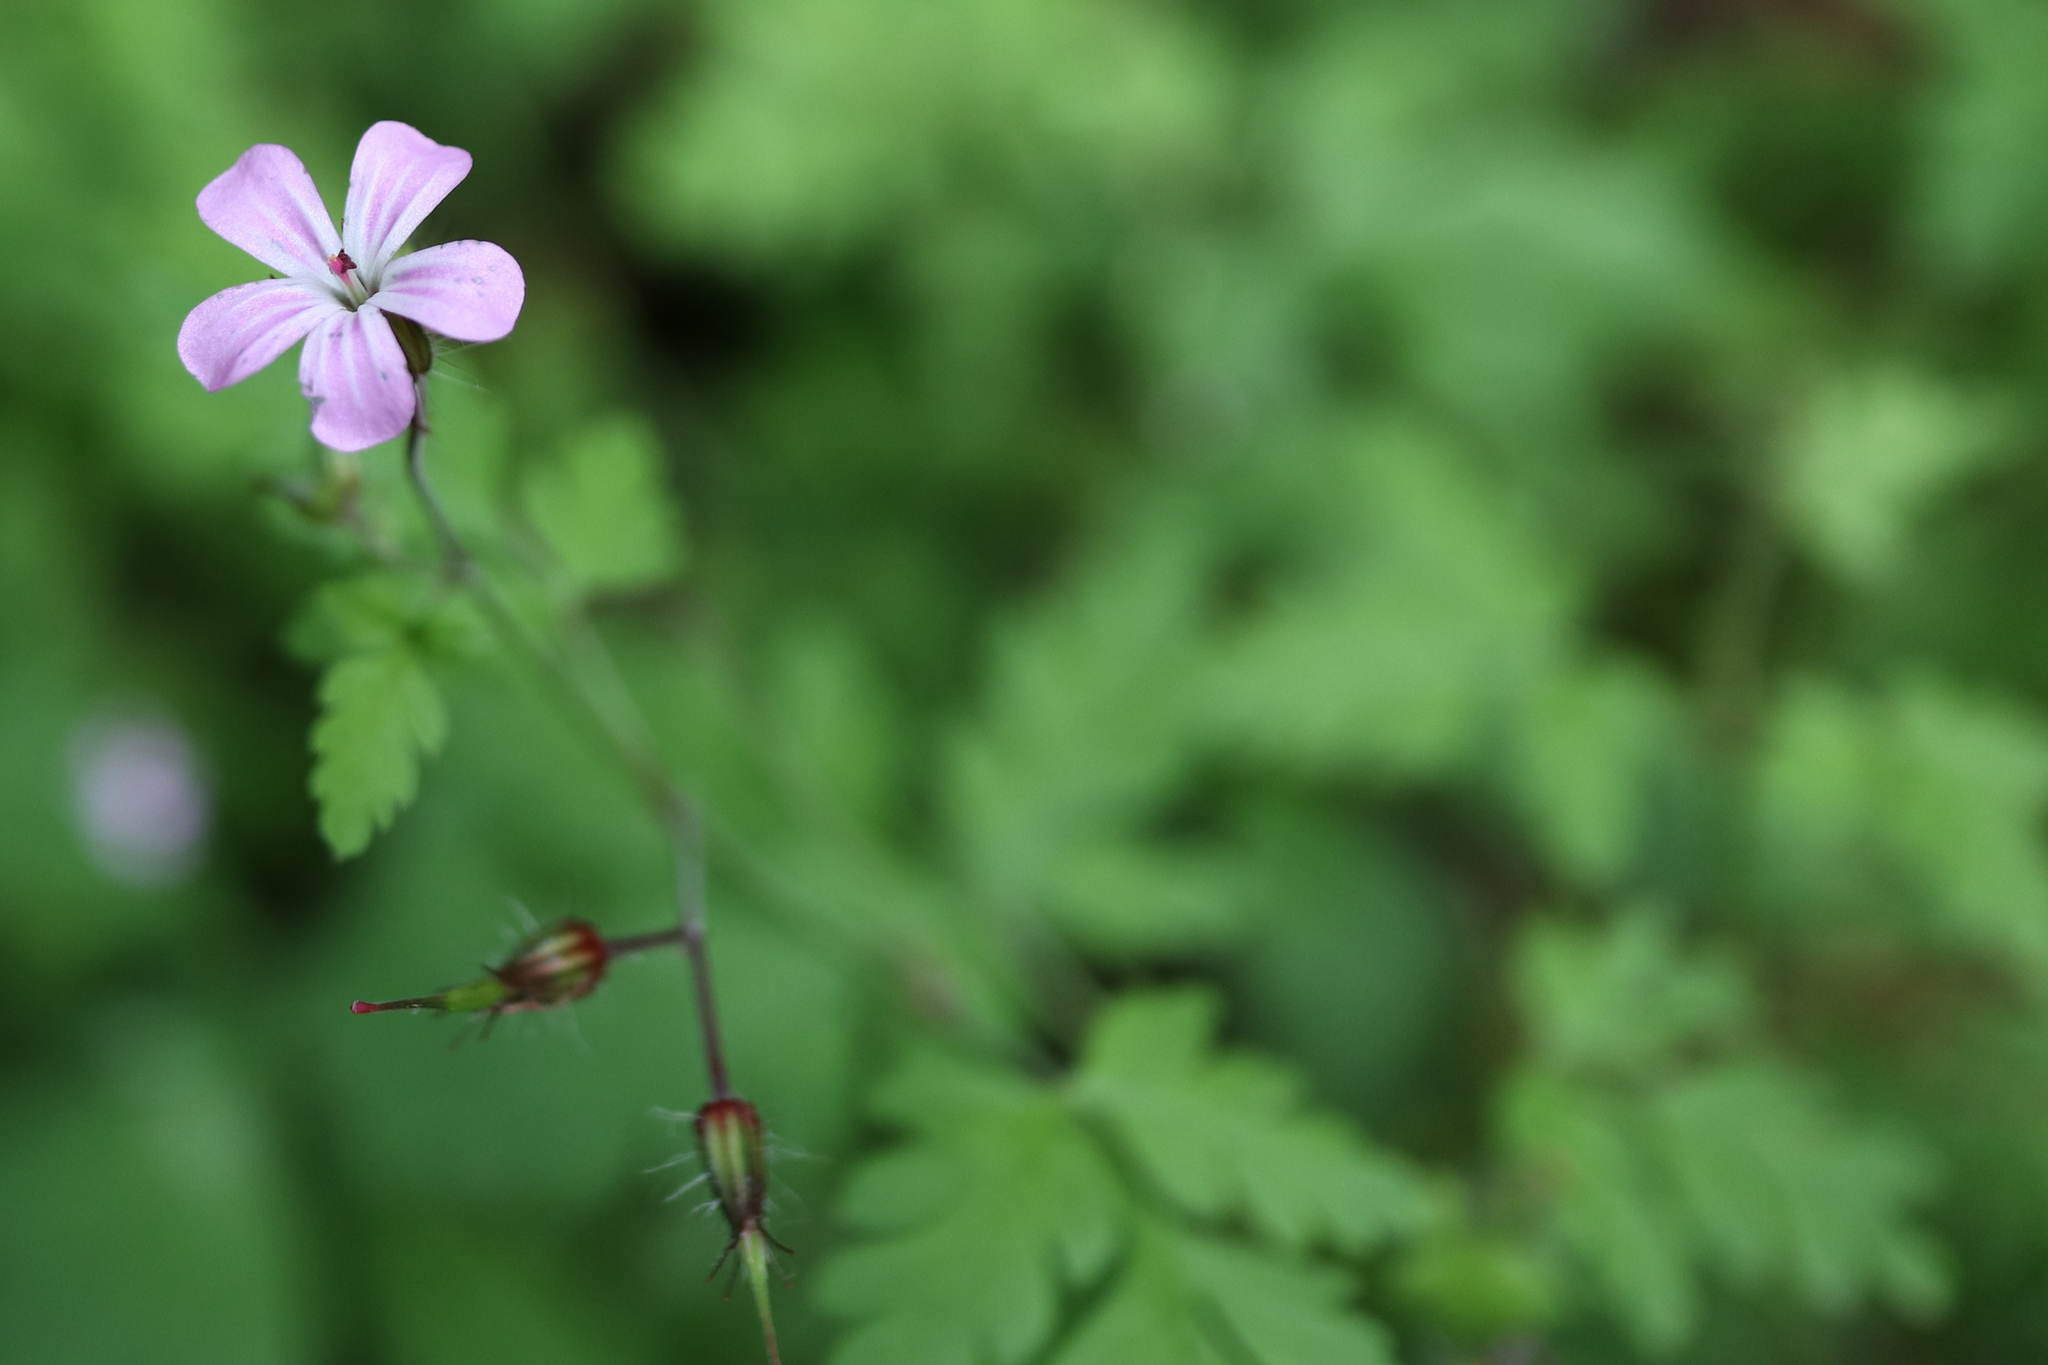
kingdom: Plantae
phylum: Tracheophyta
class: Magnoliopsida
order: Geraniales
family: Geraniaceae
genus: Geranium
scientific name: Geranium robertianum
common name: Herb-robert
